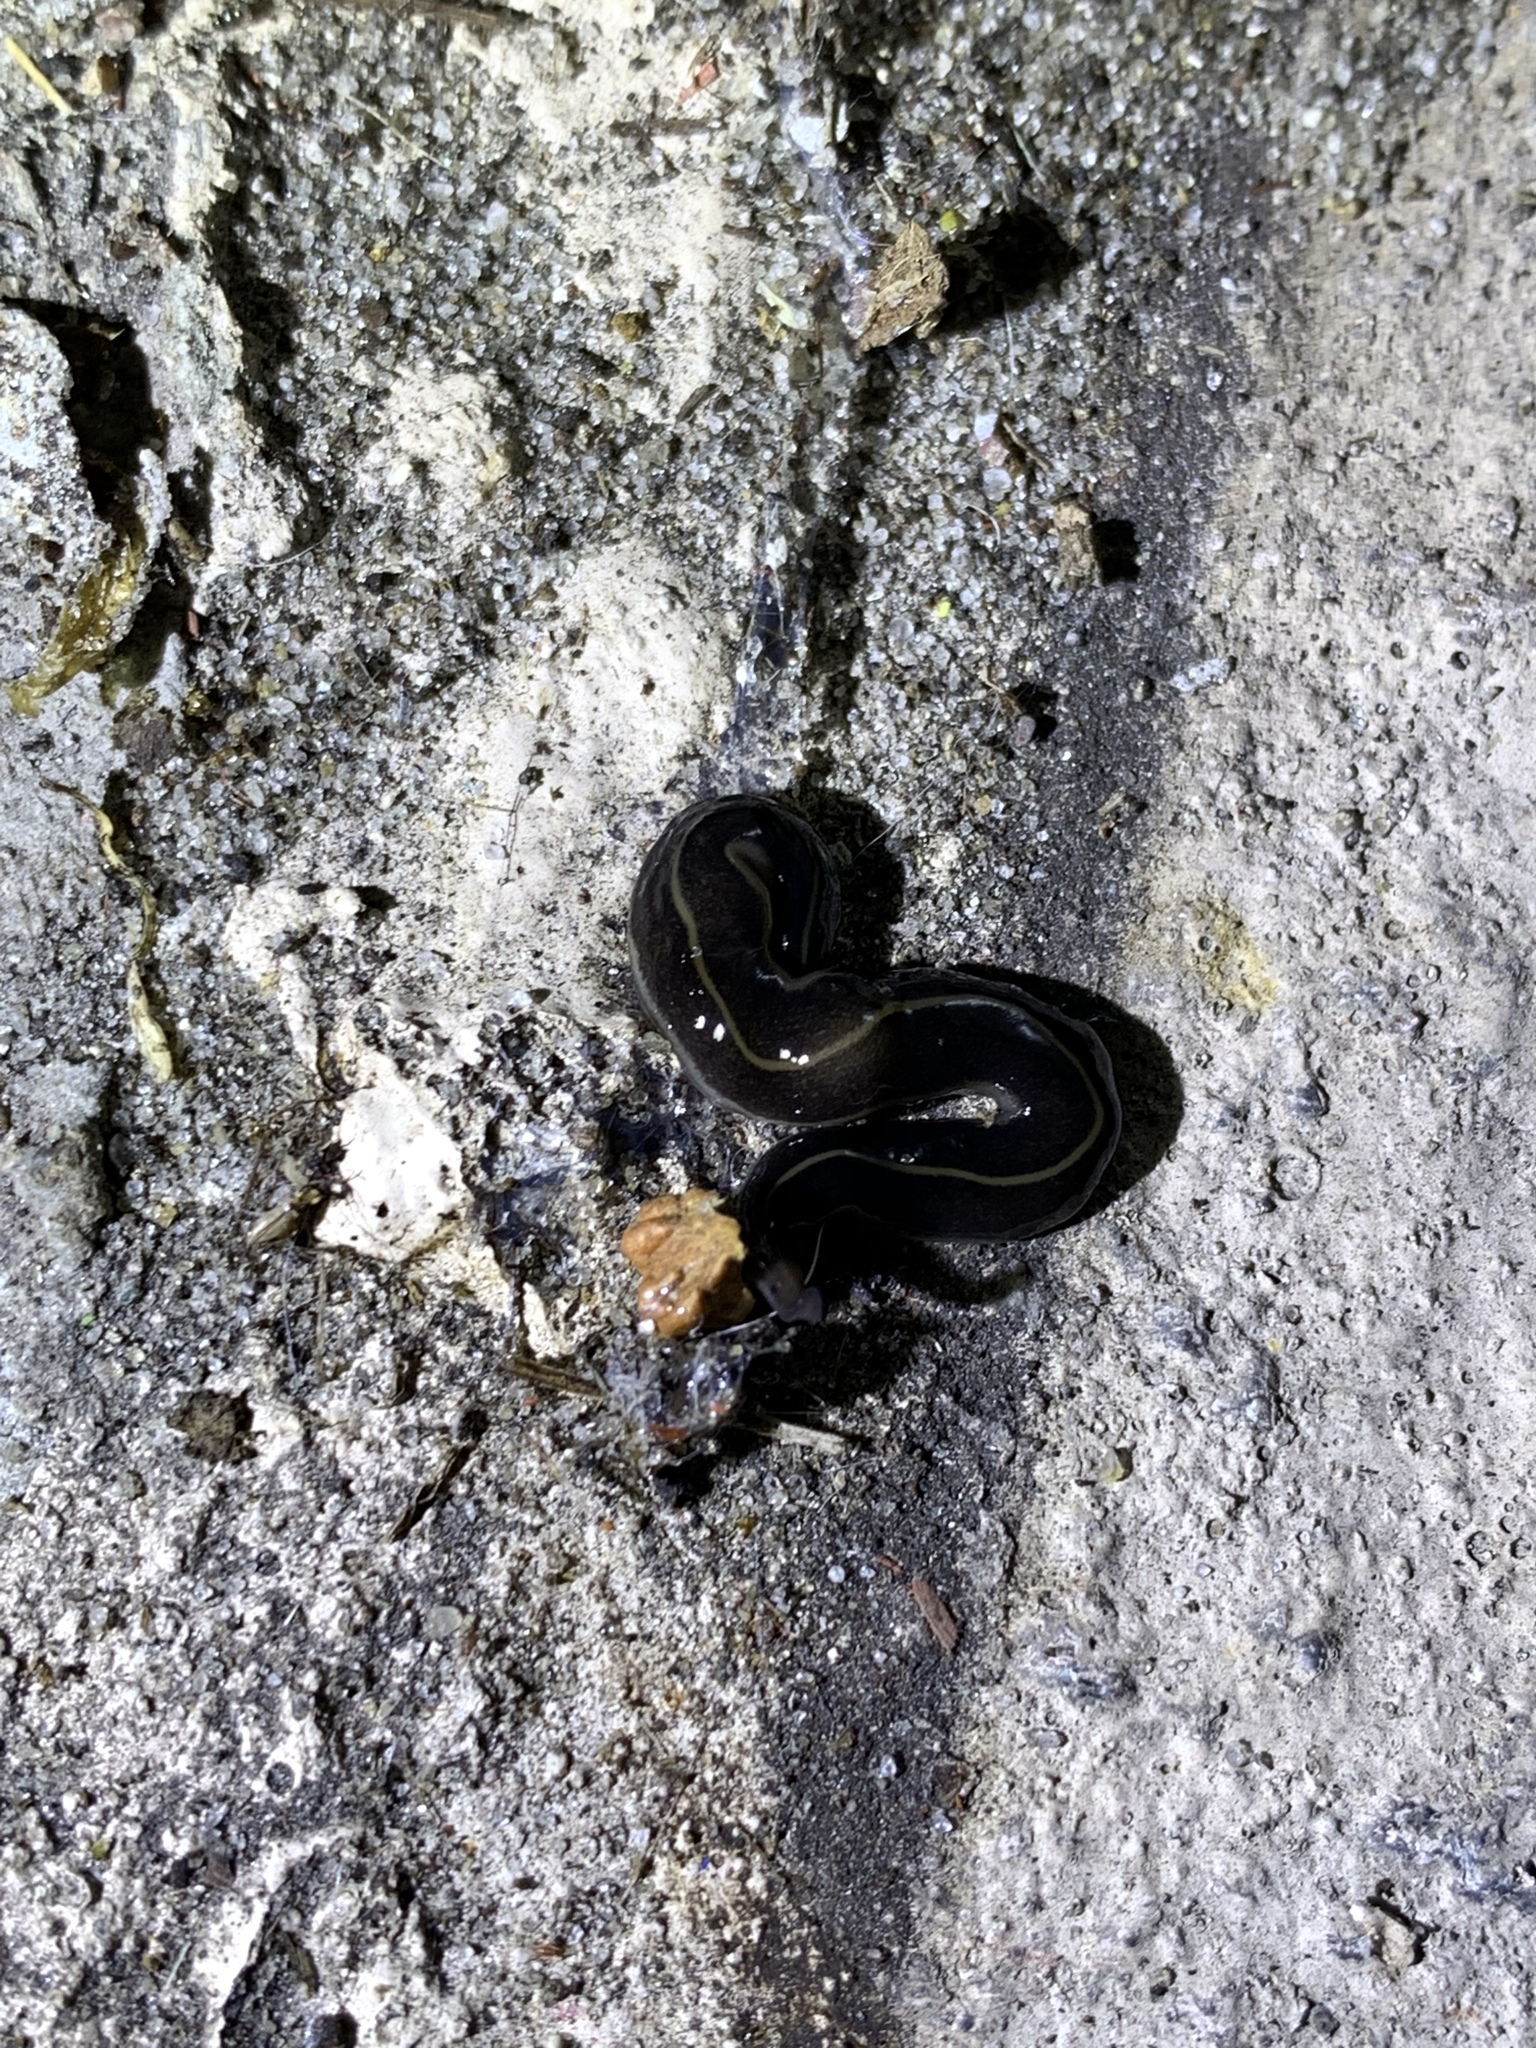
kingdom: Animalia
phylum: Platyhelminthes
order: Tricladida
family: Geoplanidae
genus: Platydemus
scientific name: Platydemus manokwari
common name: New guinea flatworm
